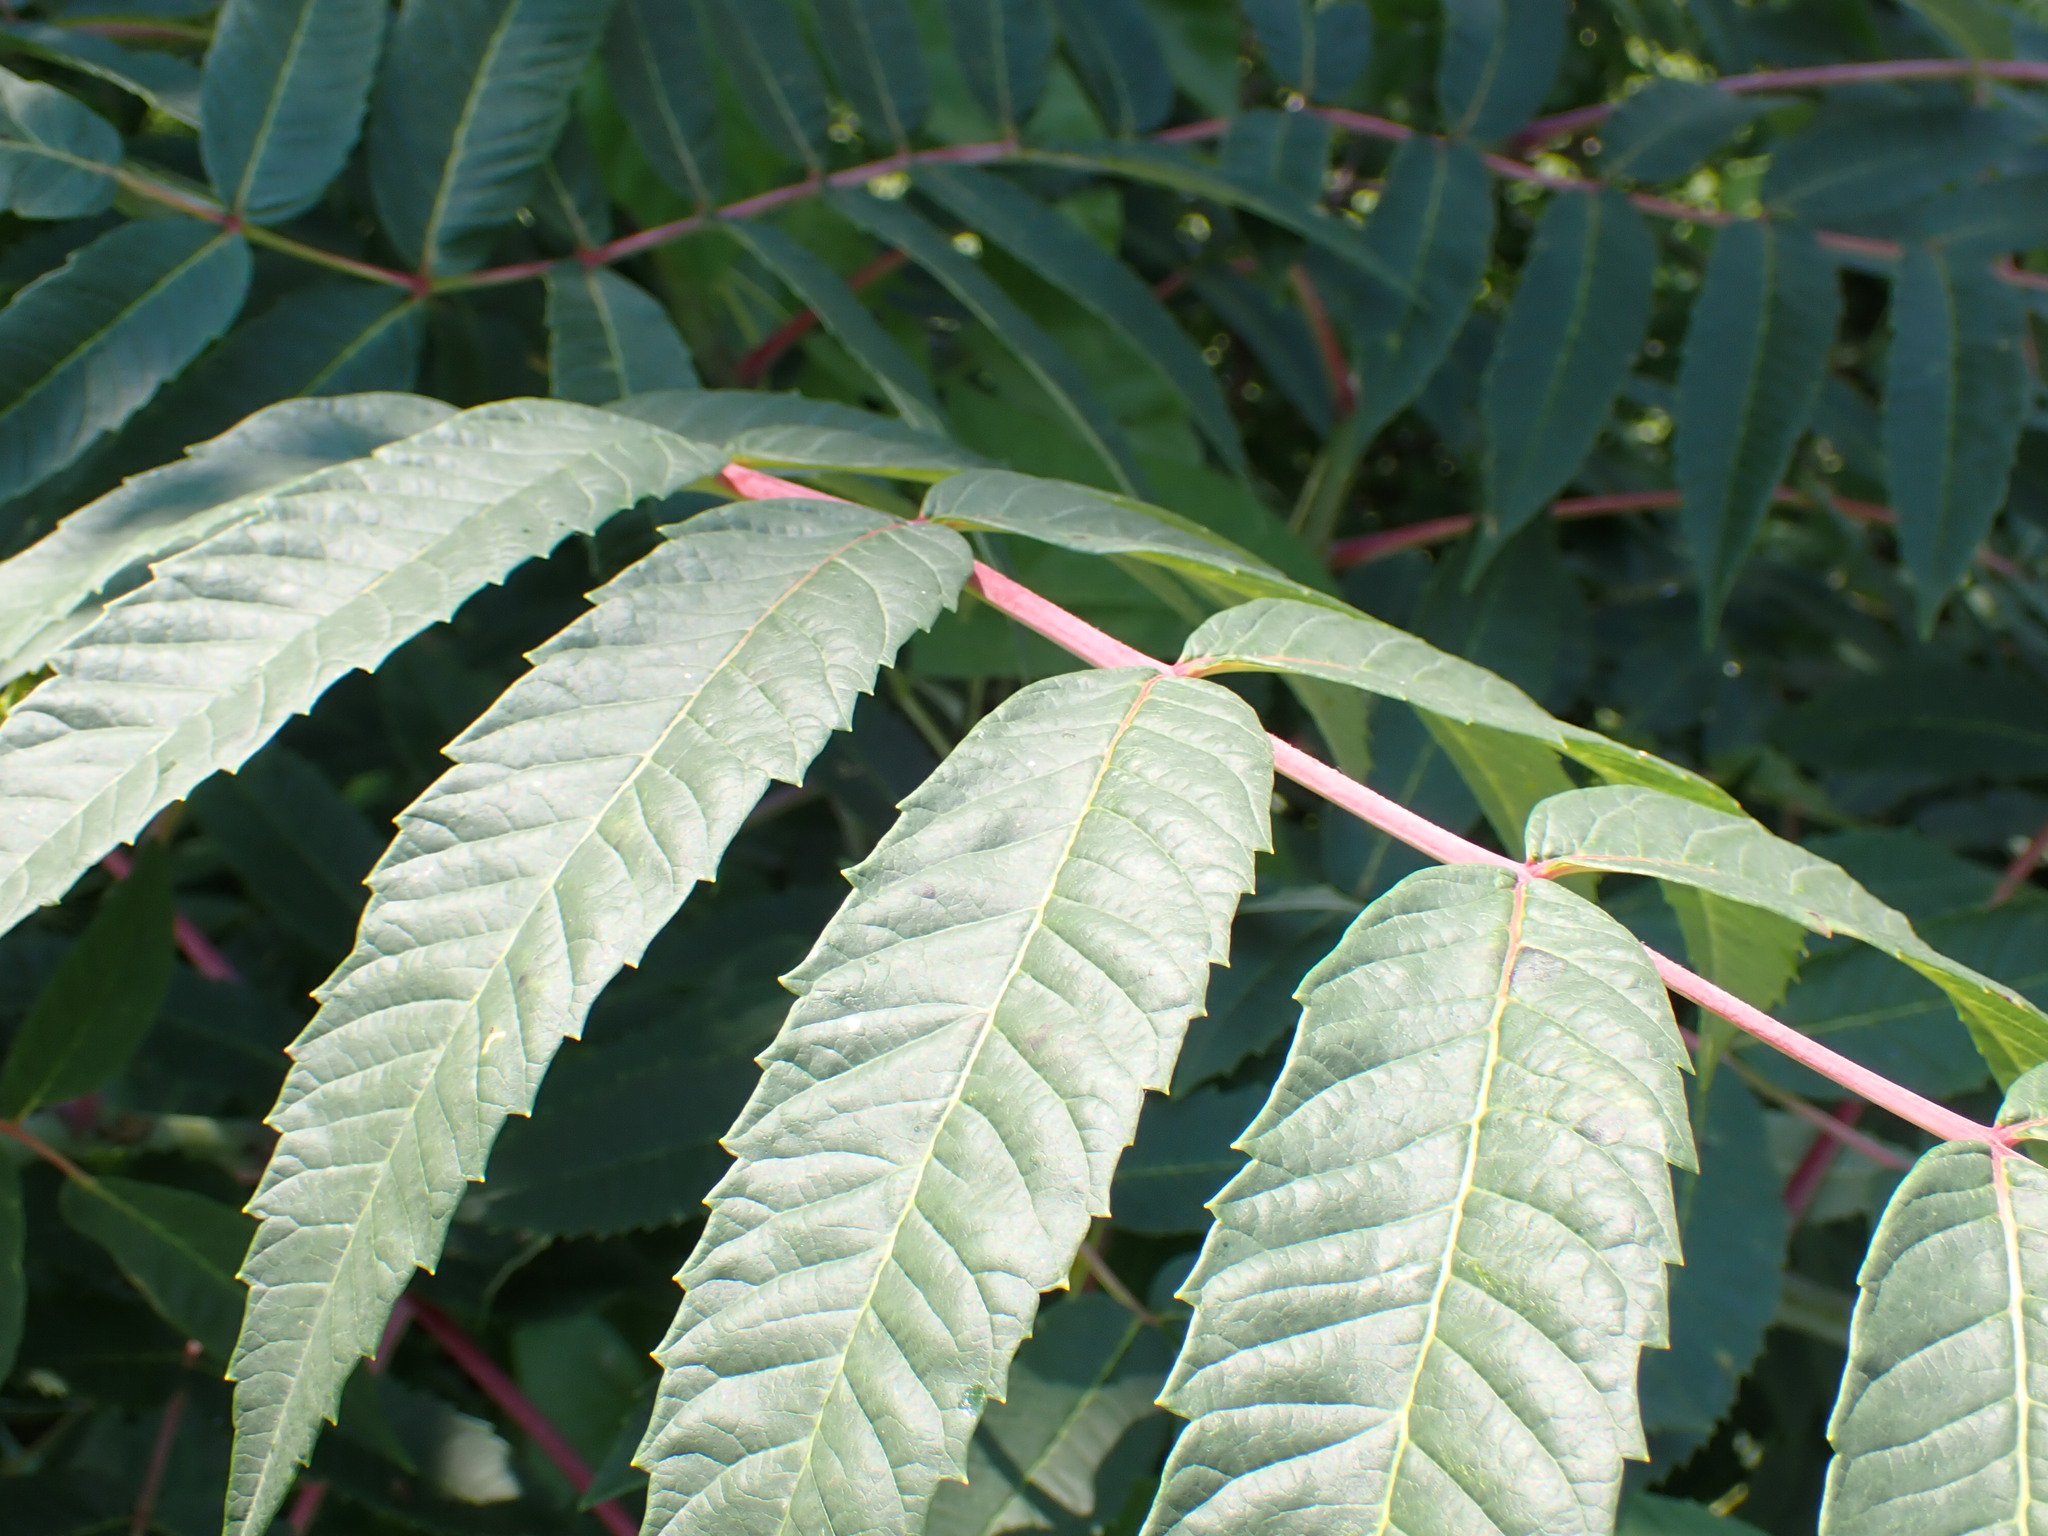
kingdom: Plantae
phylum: Tracheophyta
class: Magnoliopsida
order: Sapindales
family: Anacardiaceae
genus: Rhus
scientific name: Rhus glabra
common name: Scarlet sumac
